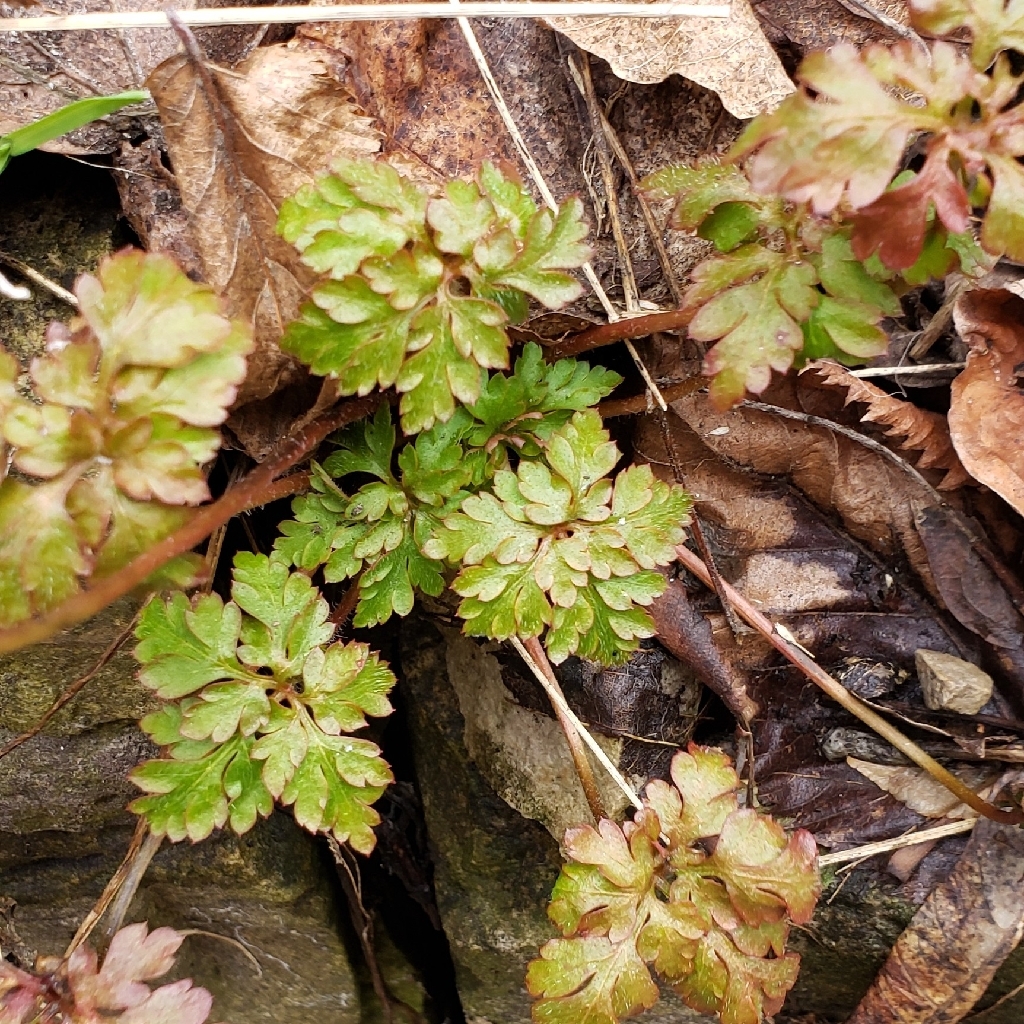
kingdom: Plantae
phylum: Tracheophyta
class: Magnoliopsida
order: Geraniales
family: Geraniaceae
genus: Geranium
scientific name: Geranium robertianum
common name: Herb-robert
